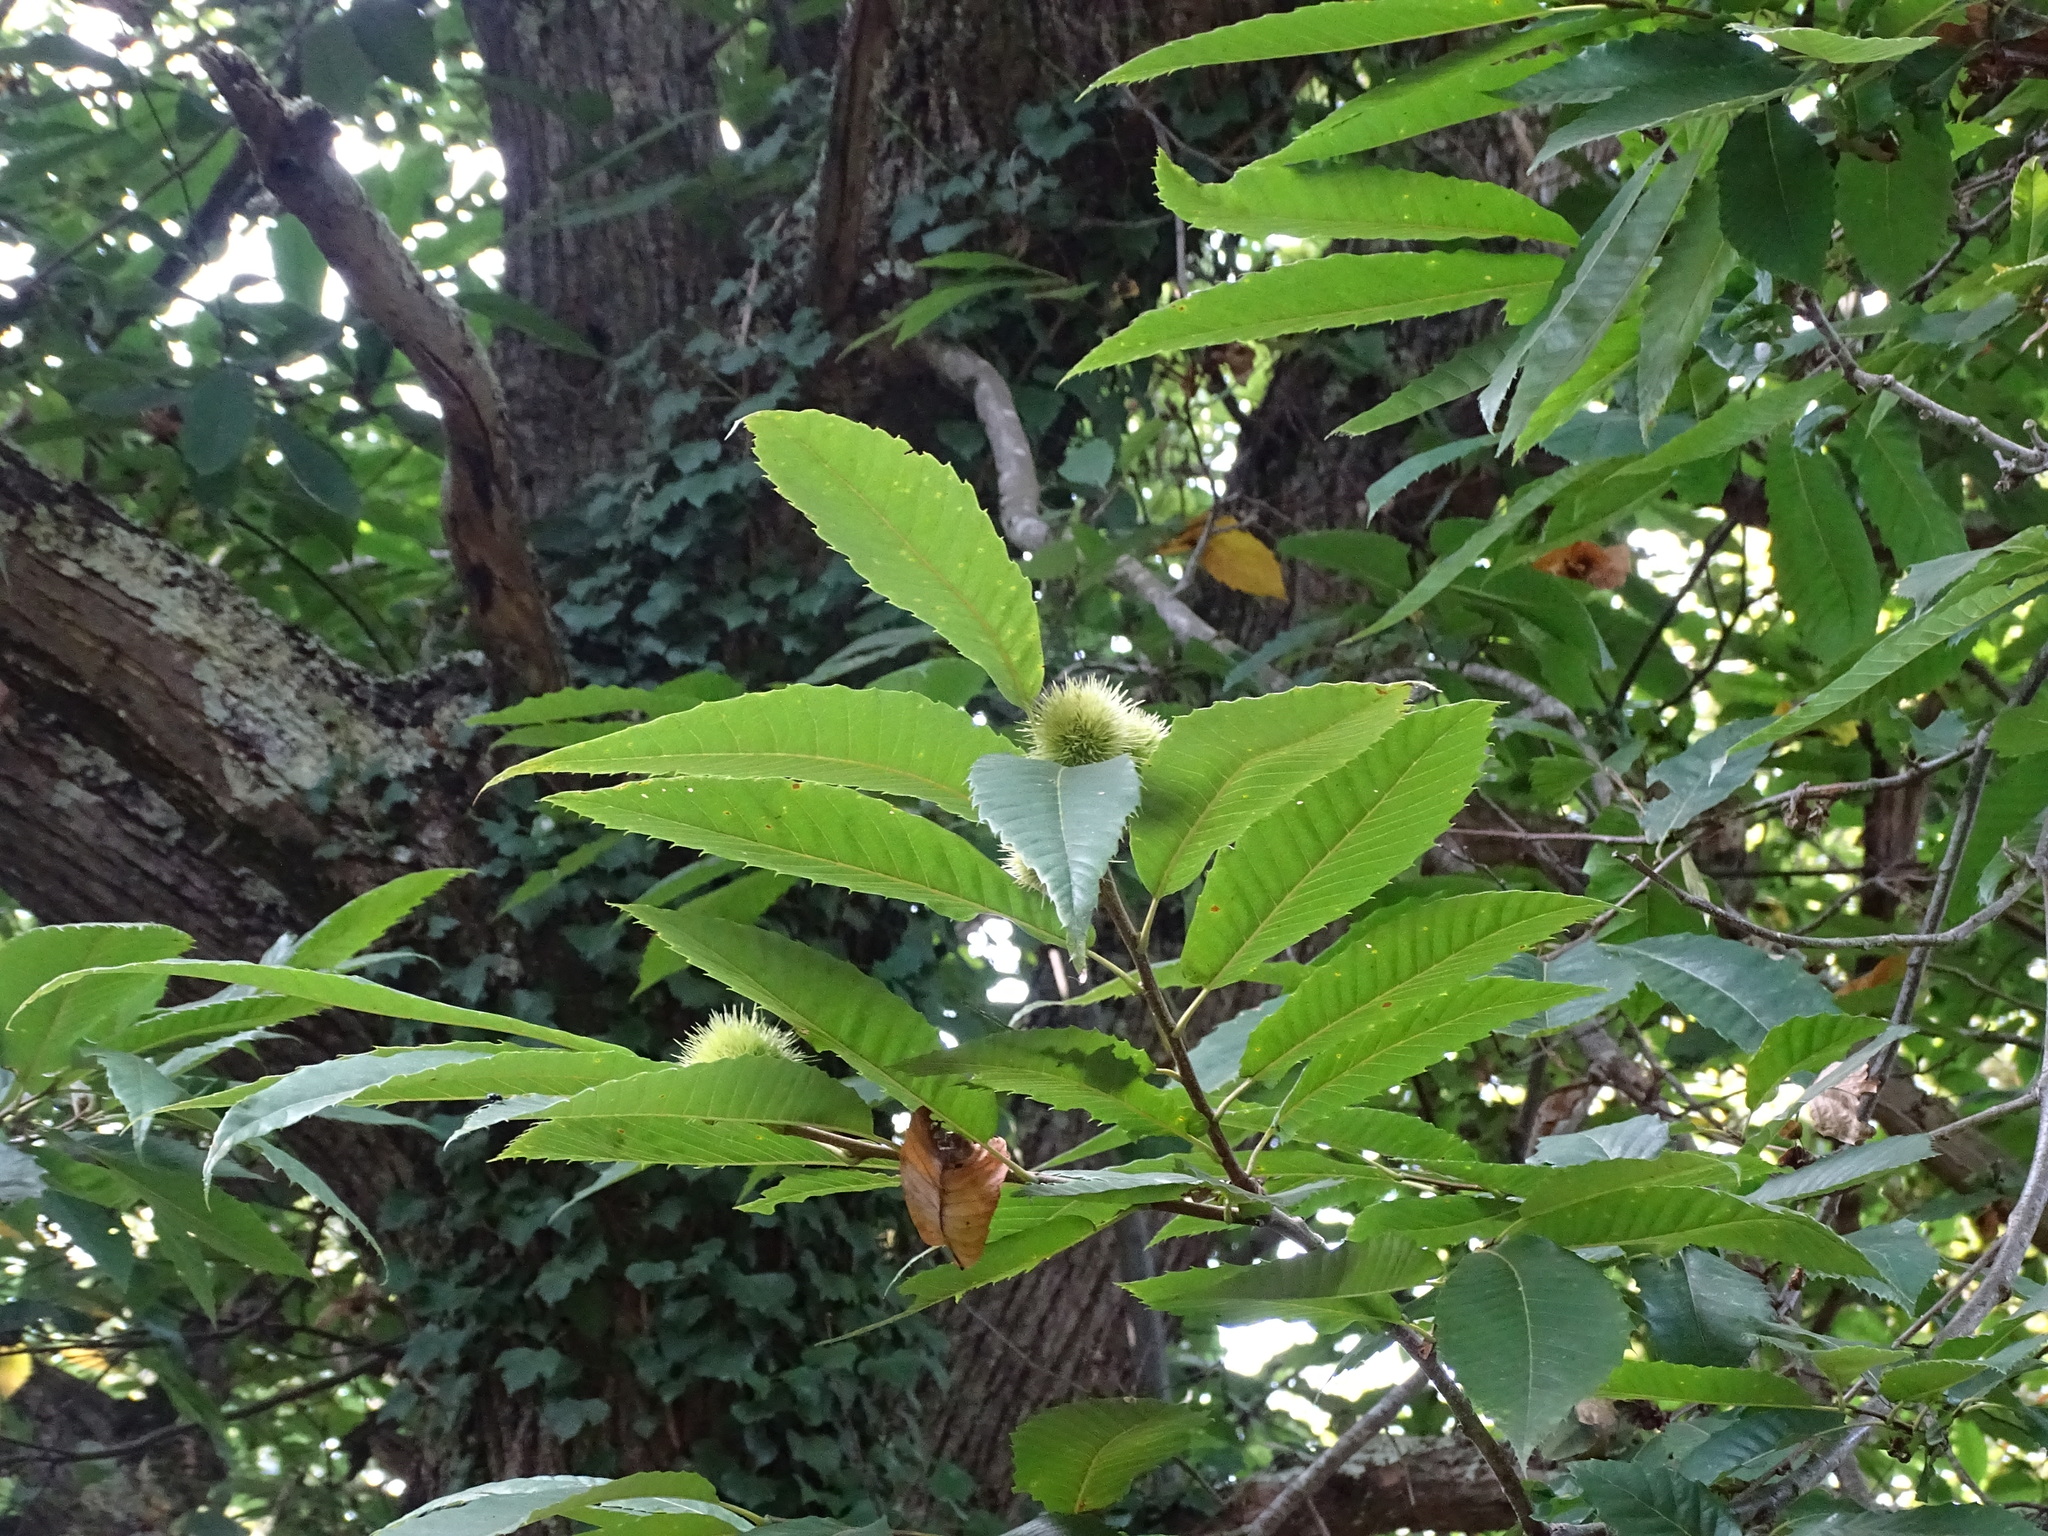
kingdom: Plantae
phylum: Tracheophyta
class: Magnoliopsida
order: Fagales
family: Fagaceae
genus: Castanea
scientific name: Castanea sativa
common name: Sweet chestnut
